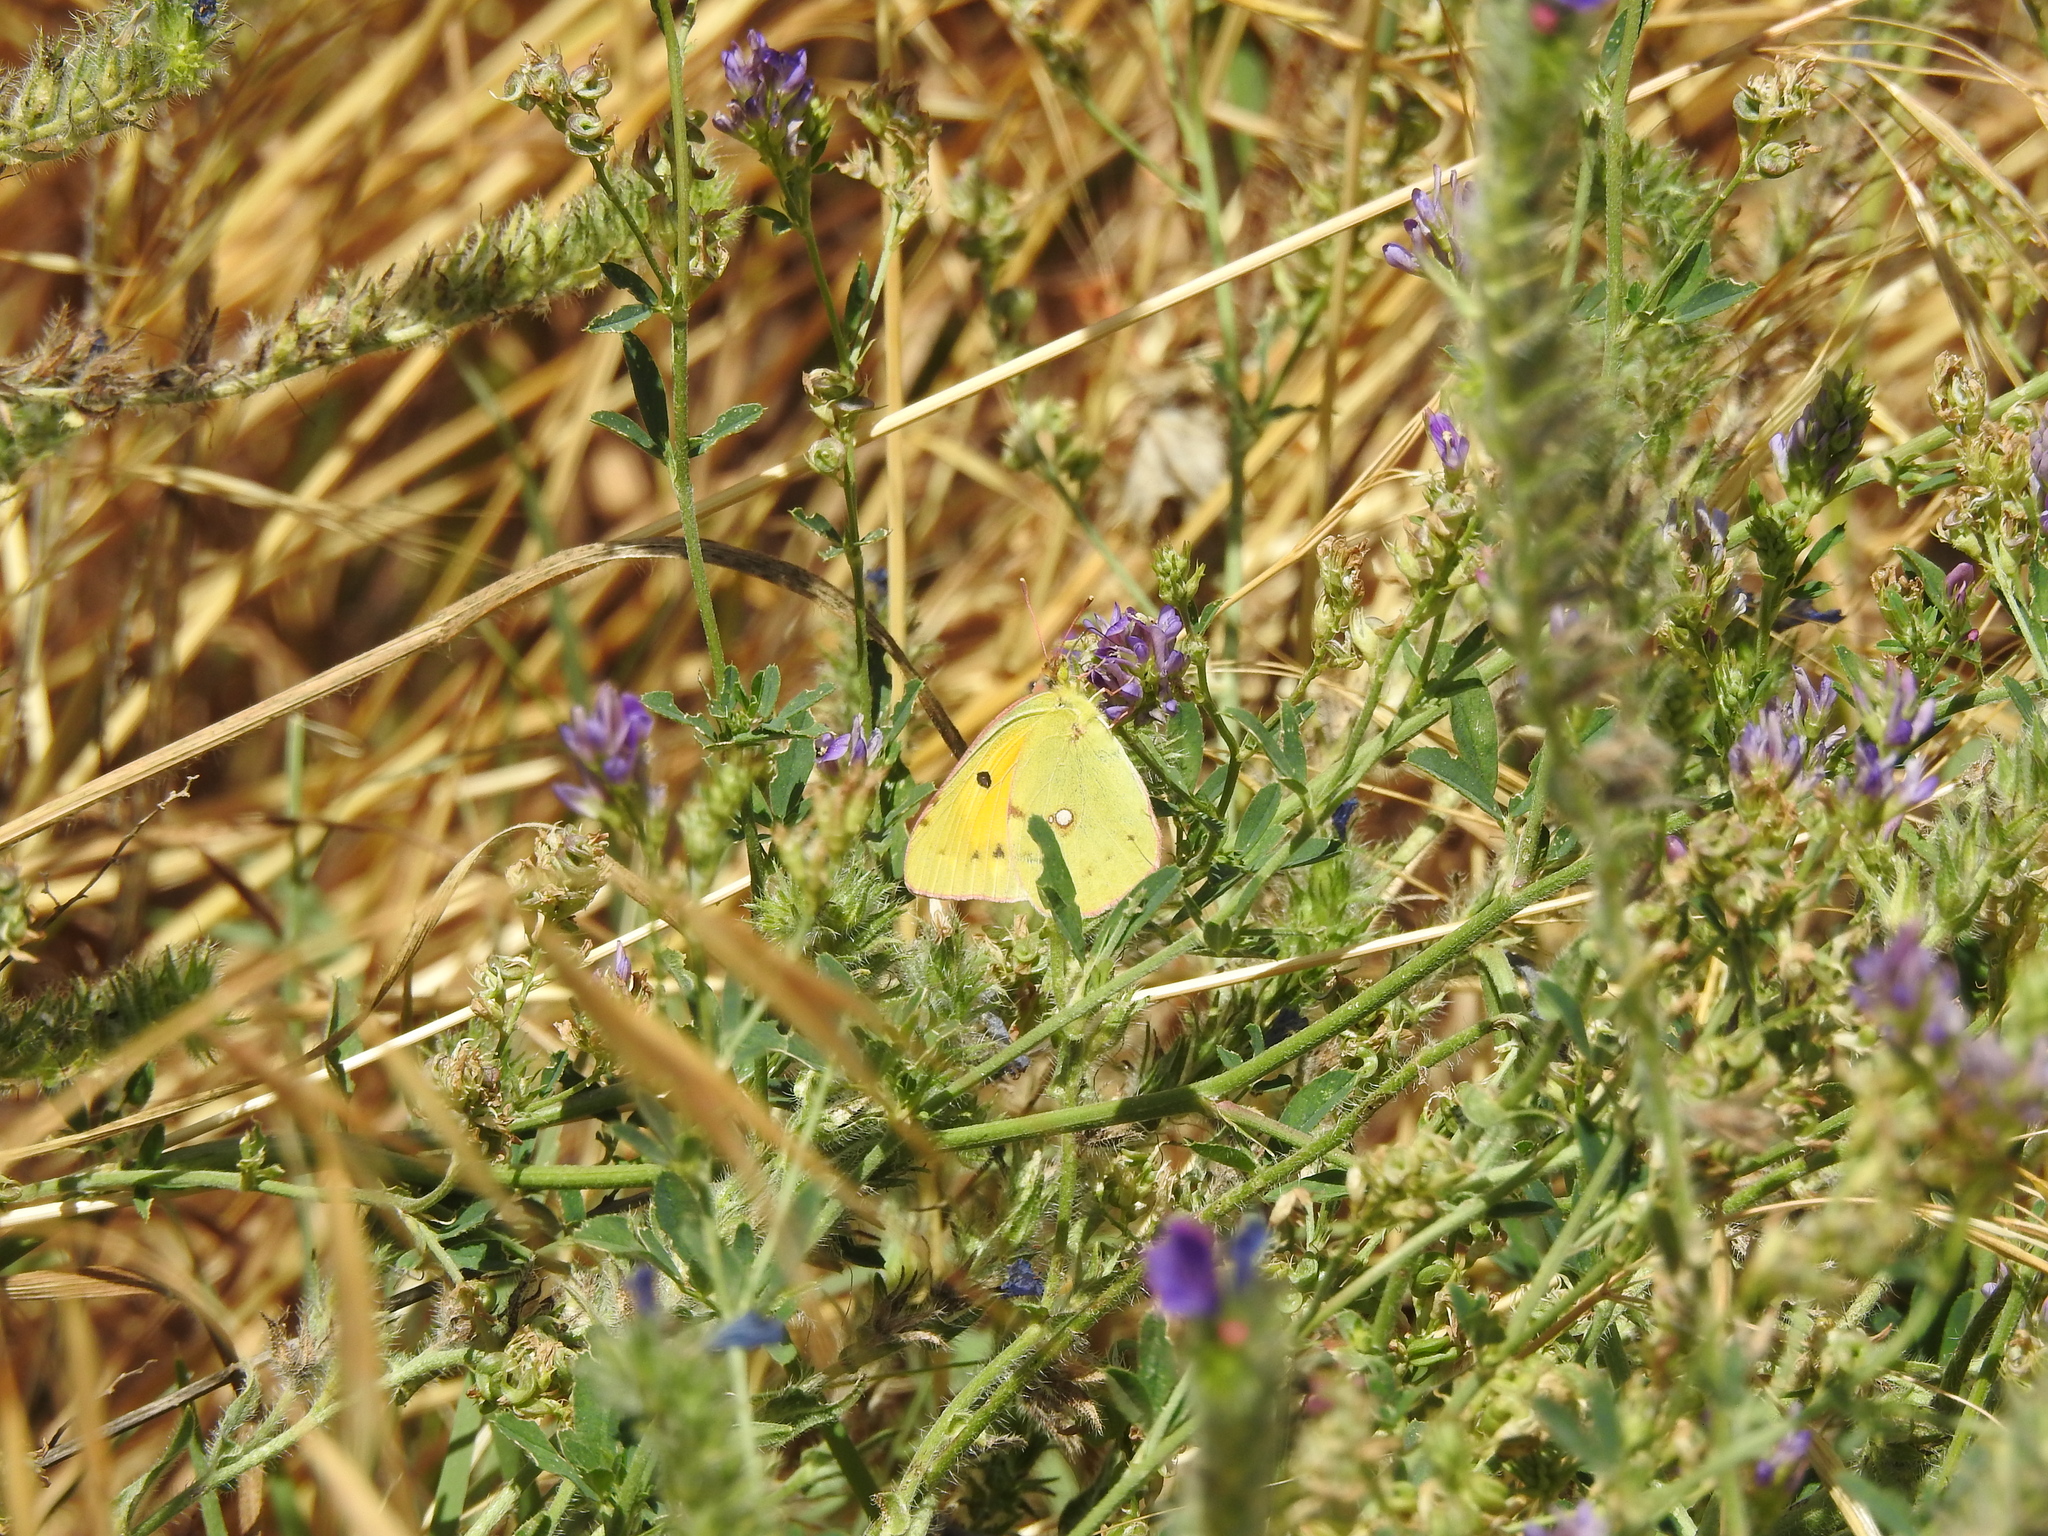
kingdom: Animalia
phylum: Arthropoda
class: Insecta
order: Lepidoptera
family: Pieridae
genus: Colias
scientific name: Colias croceus
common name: Clouded yellow
